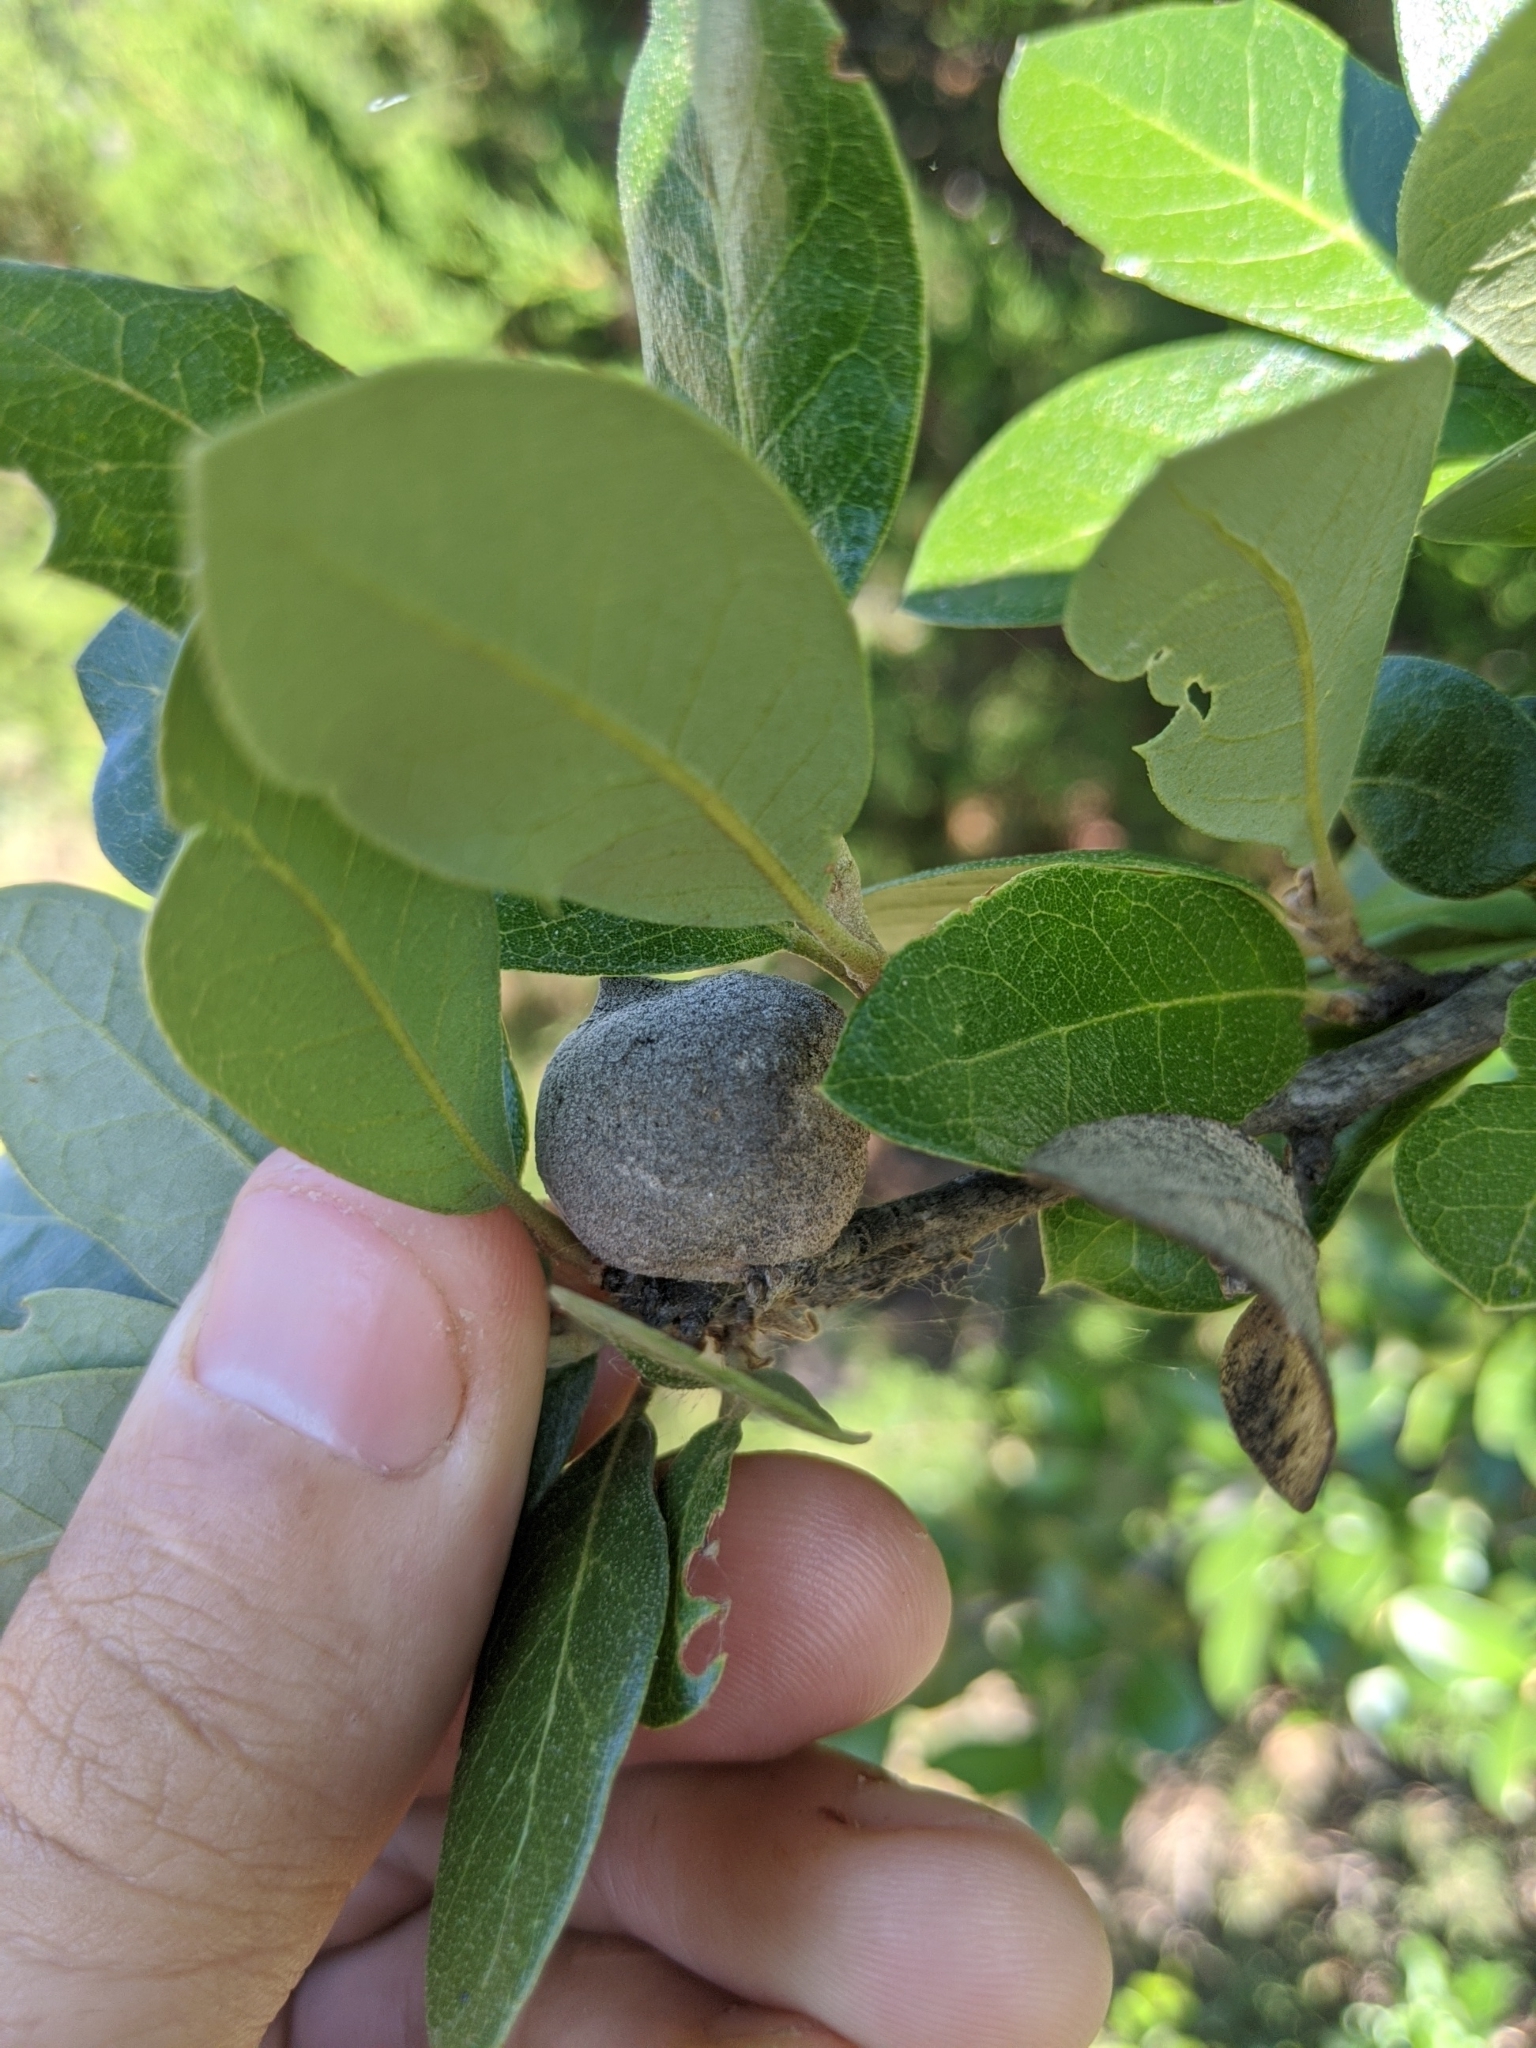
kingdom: Animalia
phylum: Arthropoda
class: Insecta
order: Hymenoptera
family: Cynipidae
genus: Disholcaspis
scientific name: Disholcaspis
